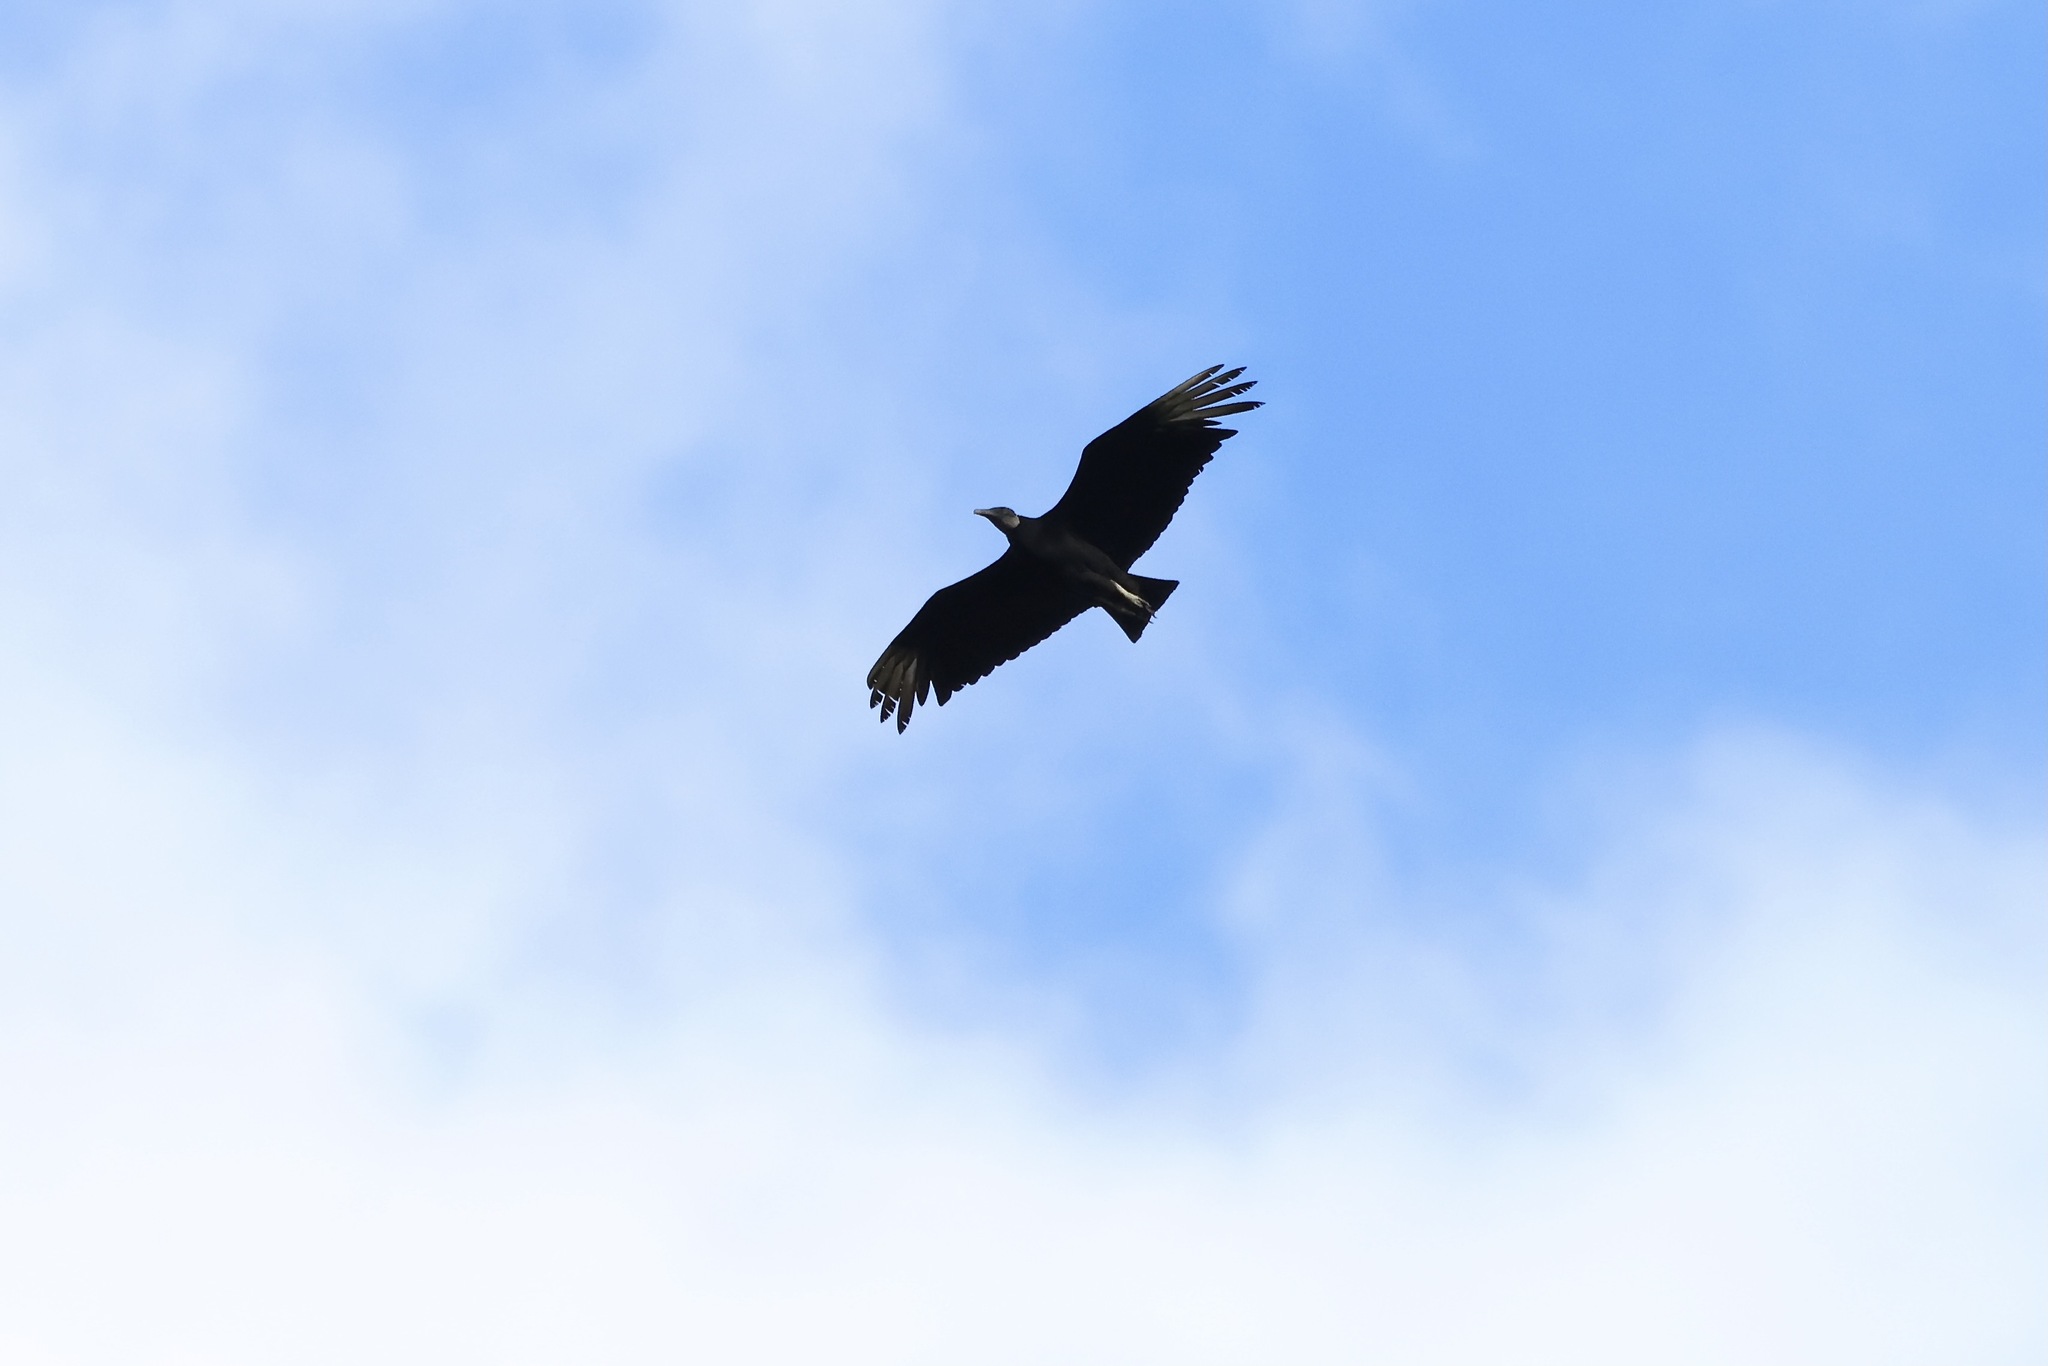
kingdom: Animalia
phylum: Chordata
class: Aves
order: Accipitriformes
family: Cathartidae
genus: Coragyps
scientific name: Coragyps atratus
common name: Black vulture
